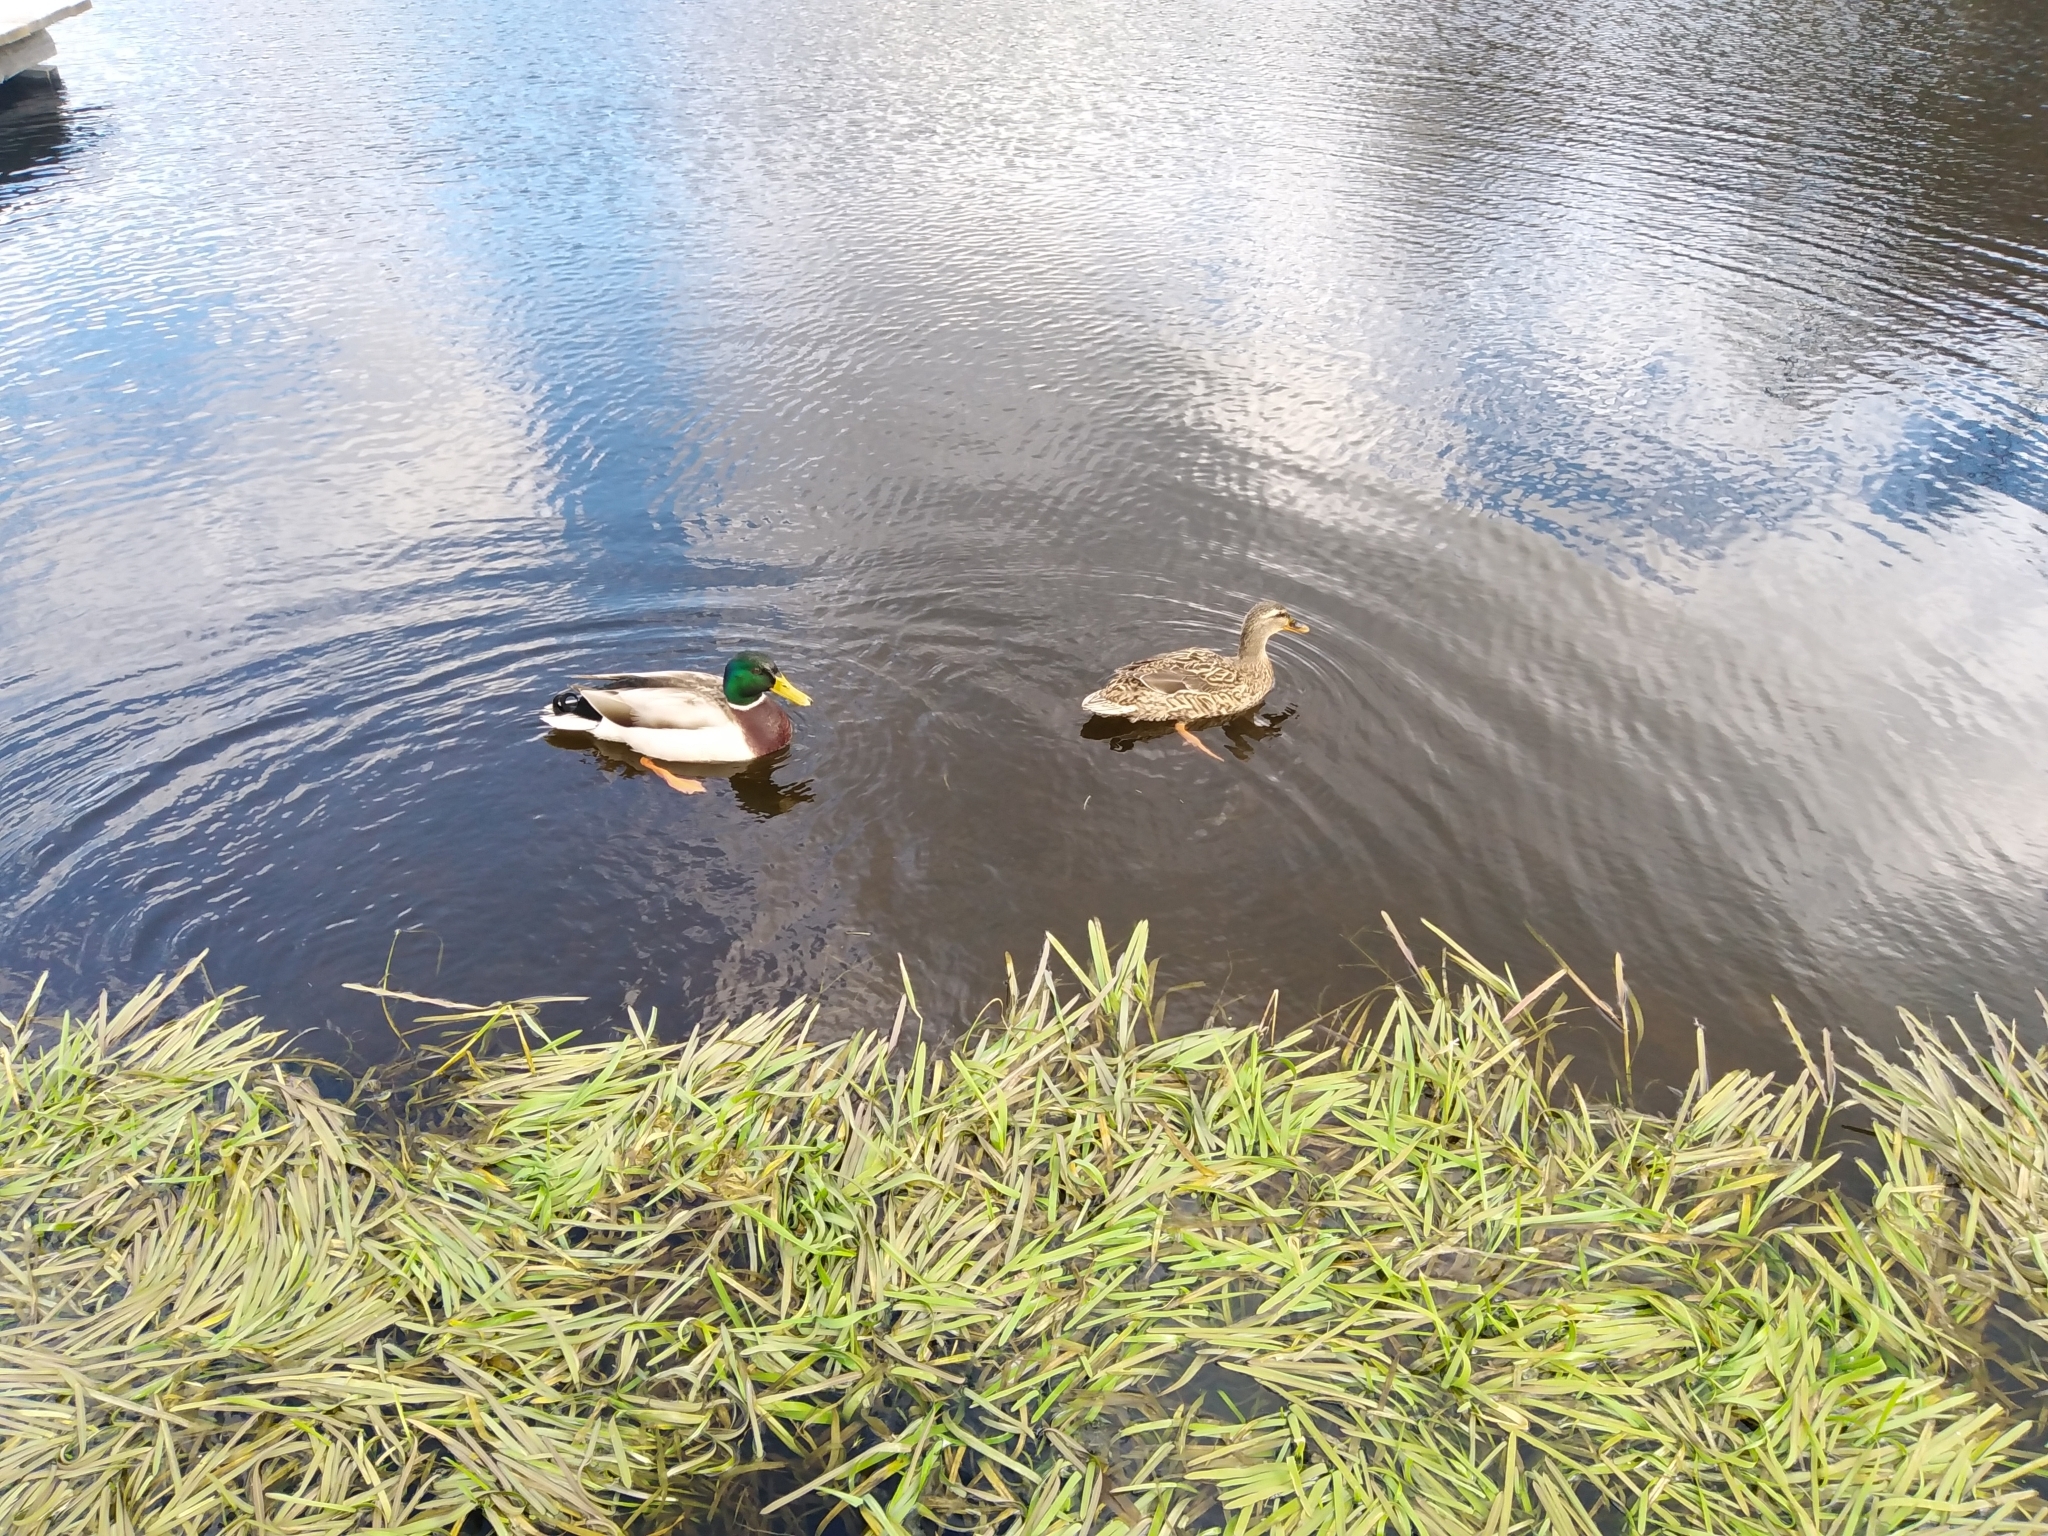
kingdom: Animalia
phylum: Chordata
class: Aves
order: Anseriformes
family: Anatidae
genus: Anas
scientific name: Anas platyrhynchos
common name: Mallard
